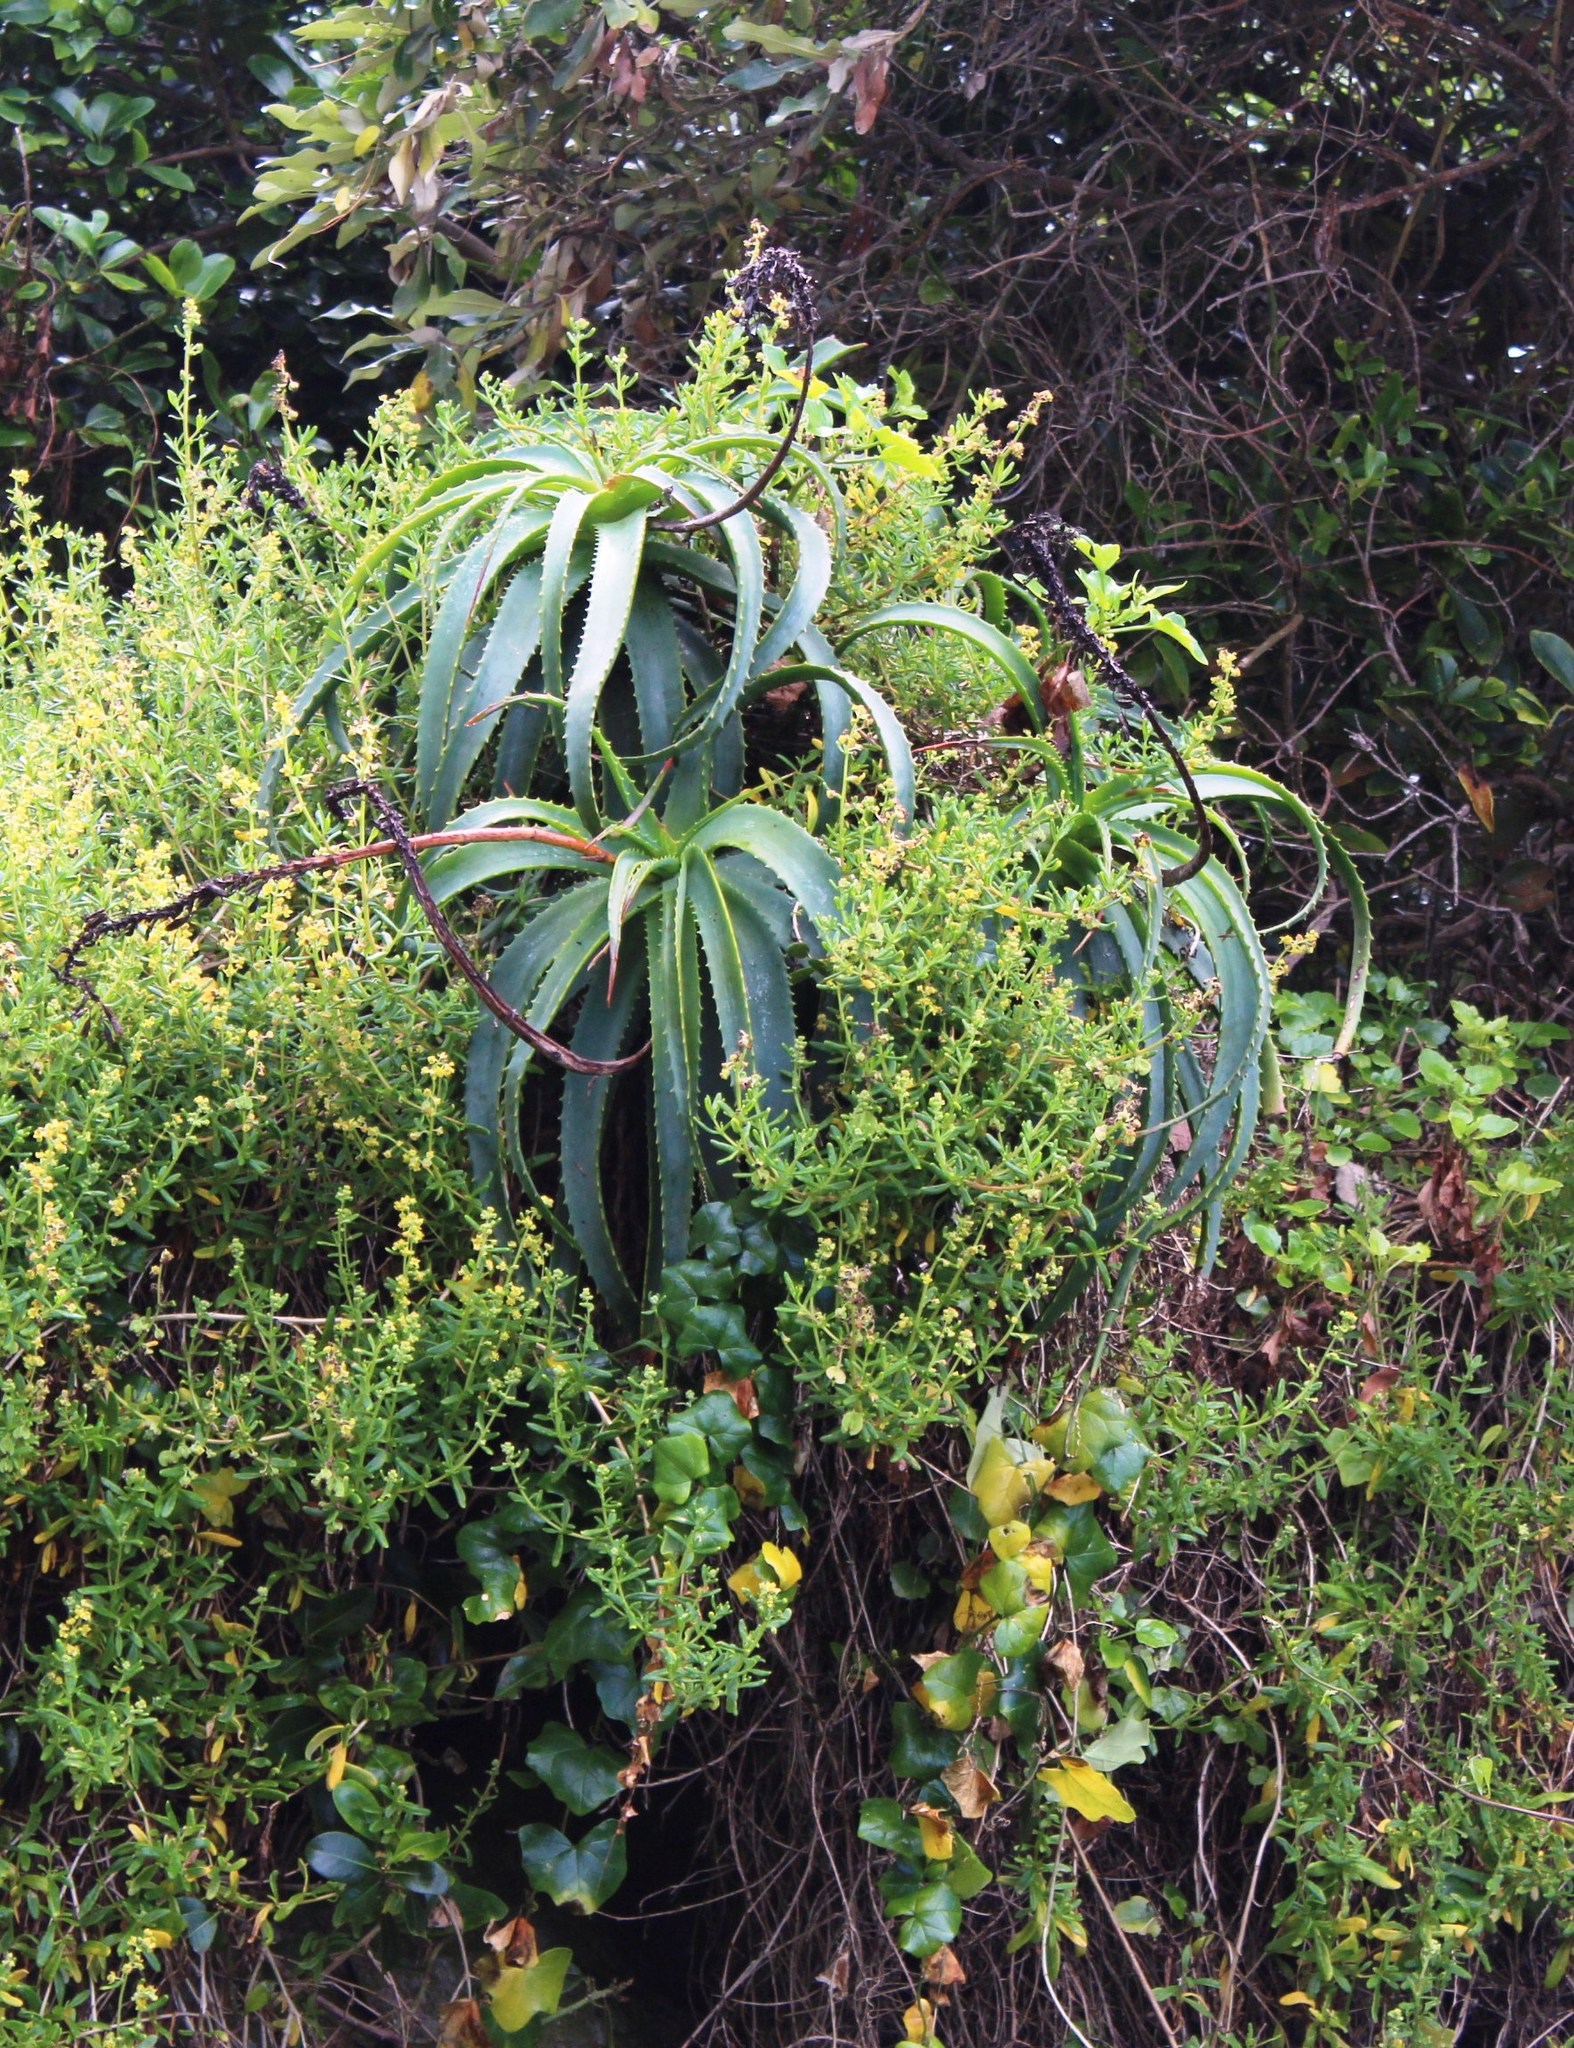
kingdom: Plantae
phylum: Tracheophyta
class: Liliopsida
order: Asparagales
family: Asphodelaceae
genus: Aloe
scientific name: Aloe arborescens
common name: Candelabra aloe
